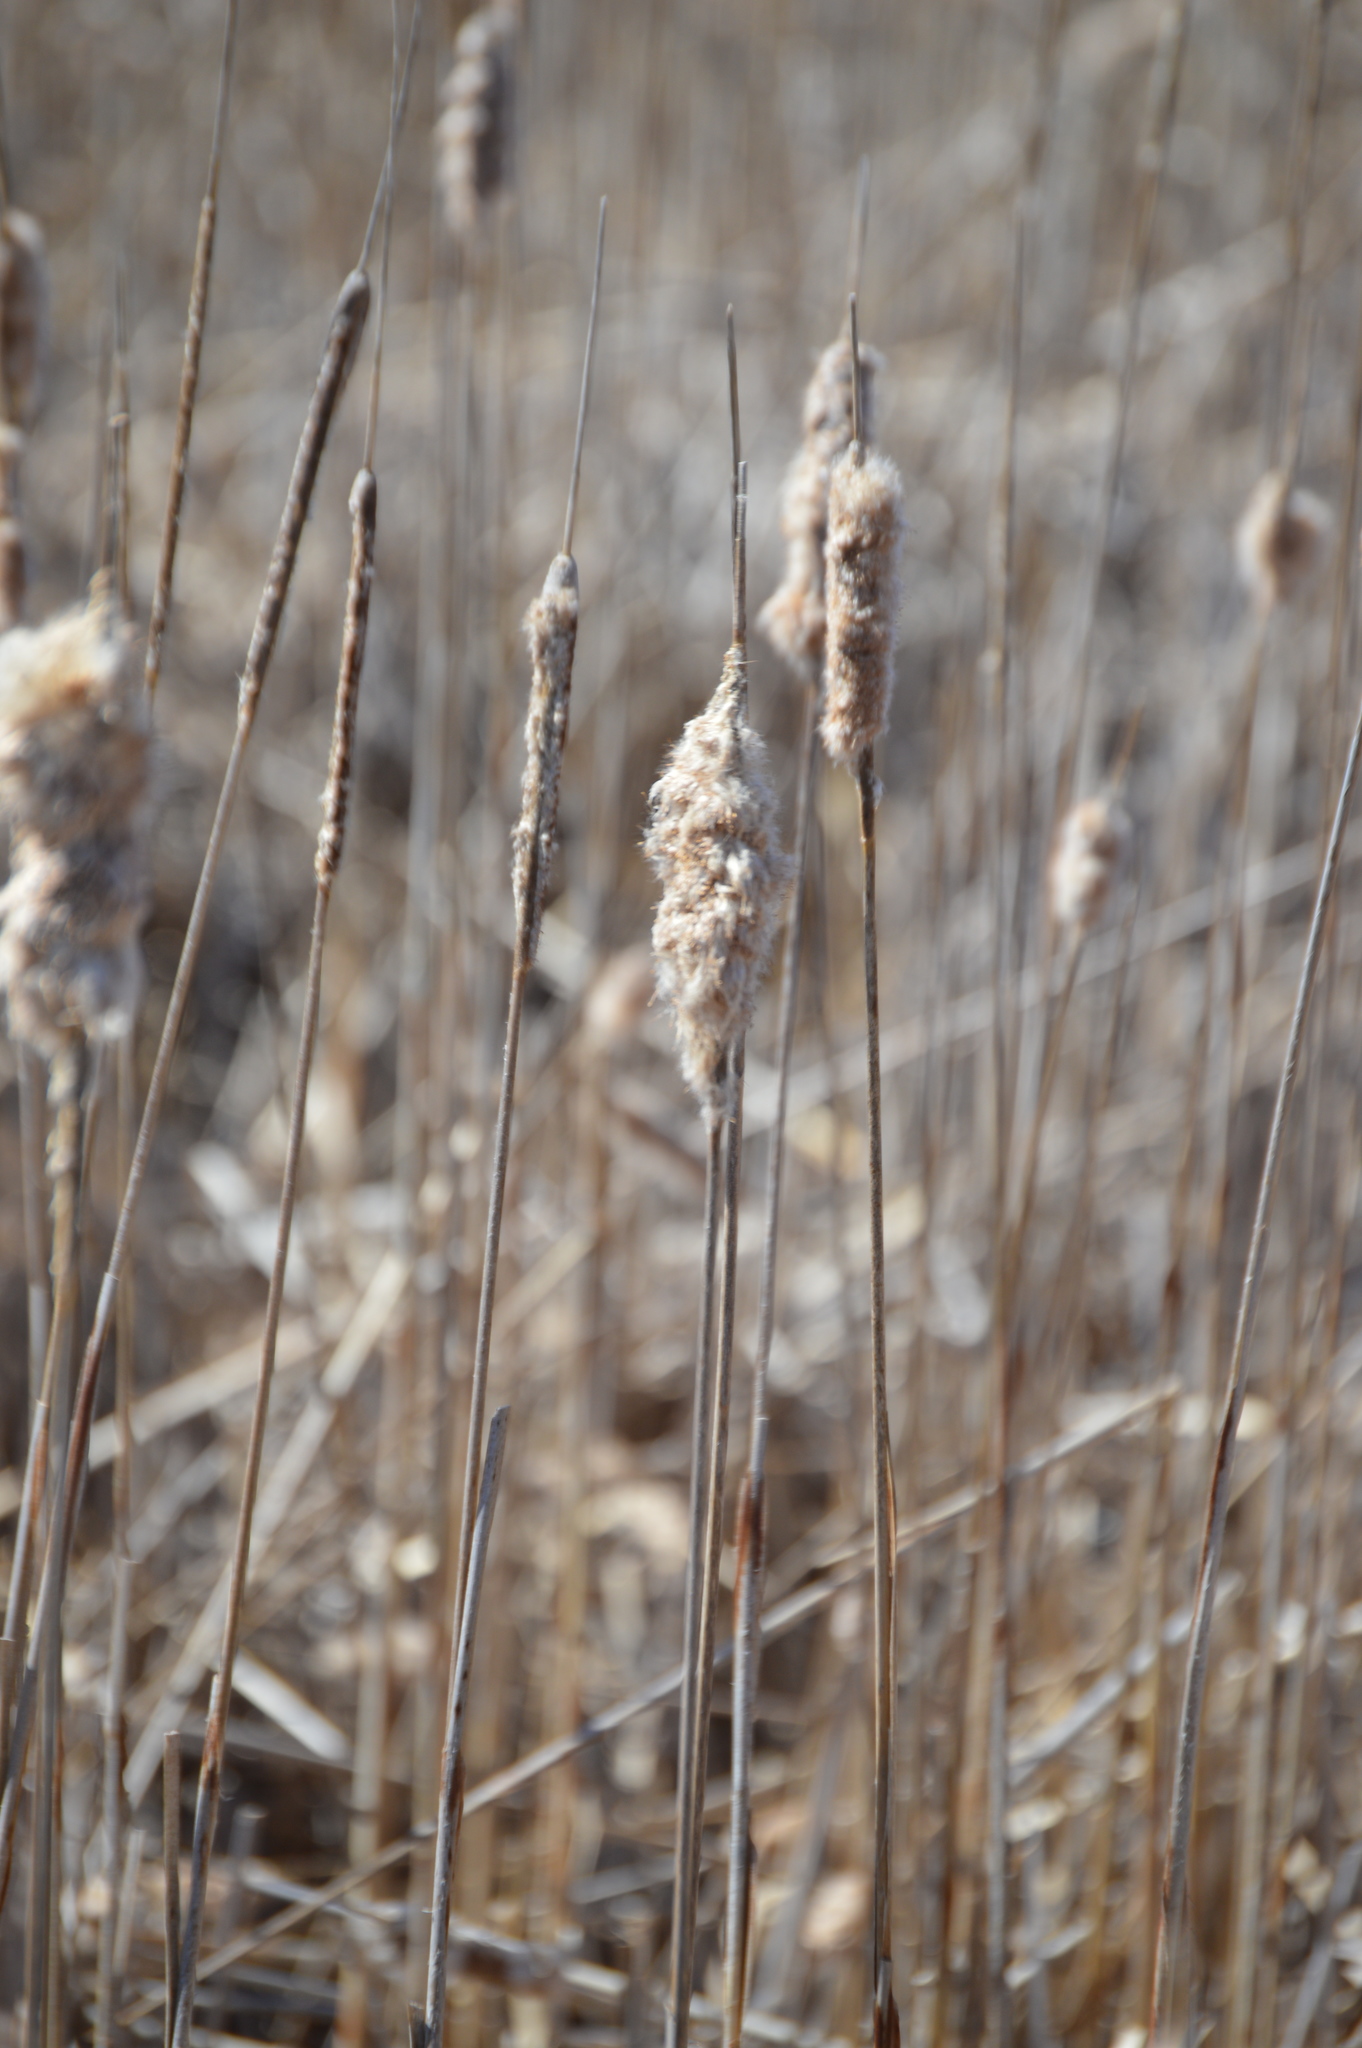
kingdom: Plantae
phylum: Tracheophyta
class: Liliopsida
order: Poales
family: Typhaceae
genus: Typha
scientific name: Typha
